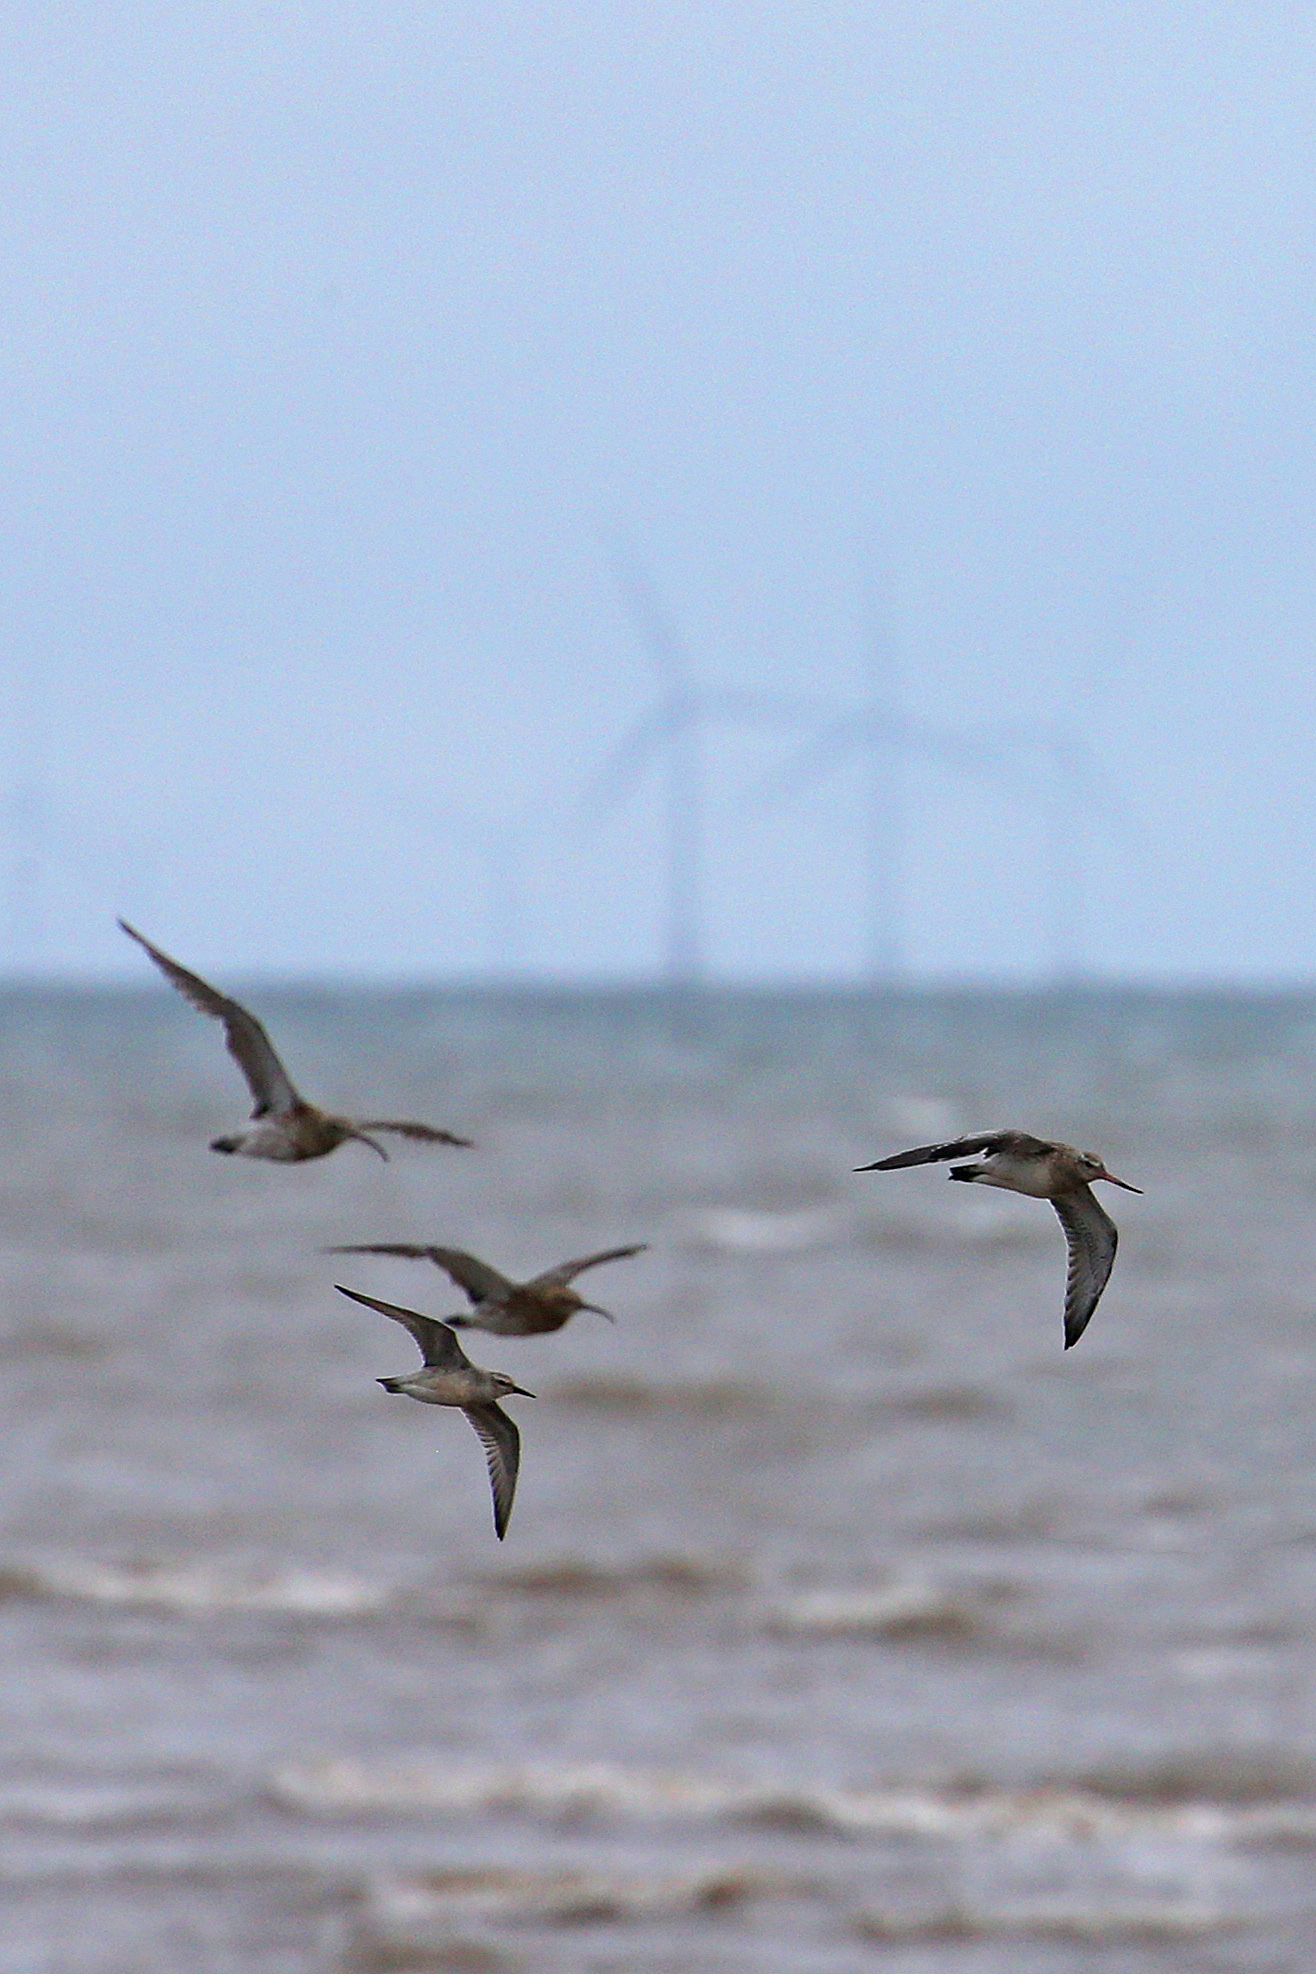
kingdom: Animalia
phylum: Chordata
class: Aves
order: Charadriiformes
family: Scolopacidae
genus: Calidris
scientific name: Calidris canutus
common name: Red knot
